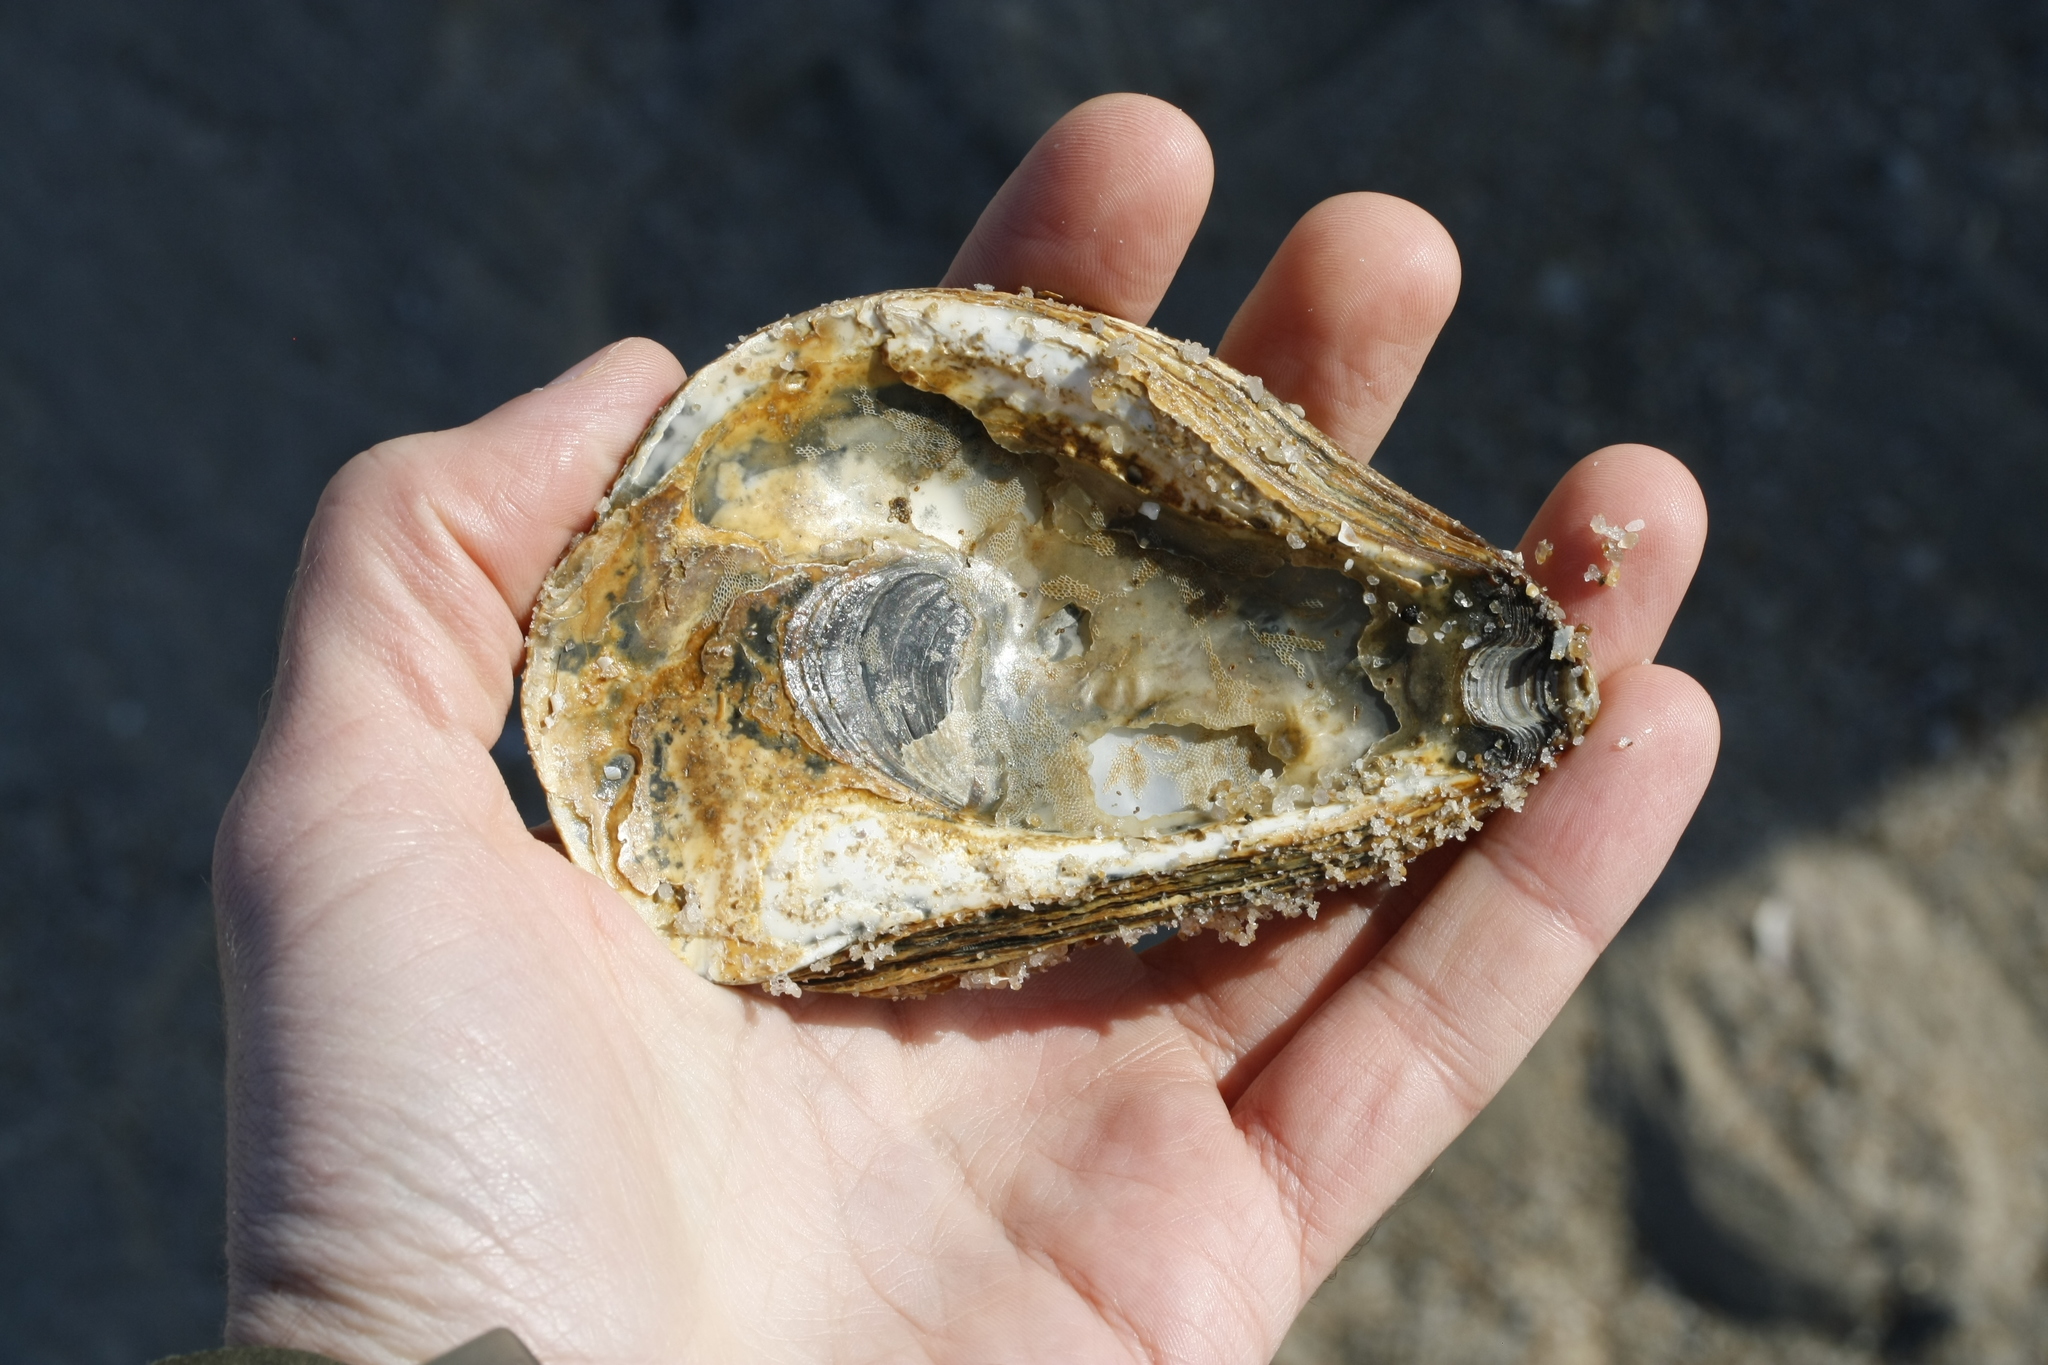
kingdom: Animalia
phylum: Mollusca
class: Bivalvia
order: Ostreida
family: Ostreidae
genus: Ostrea
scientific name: Ostrea edulis
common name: Flat oyster
